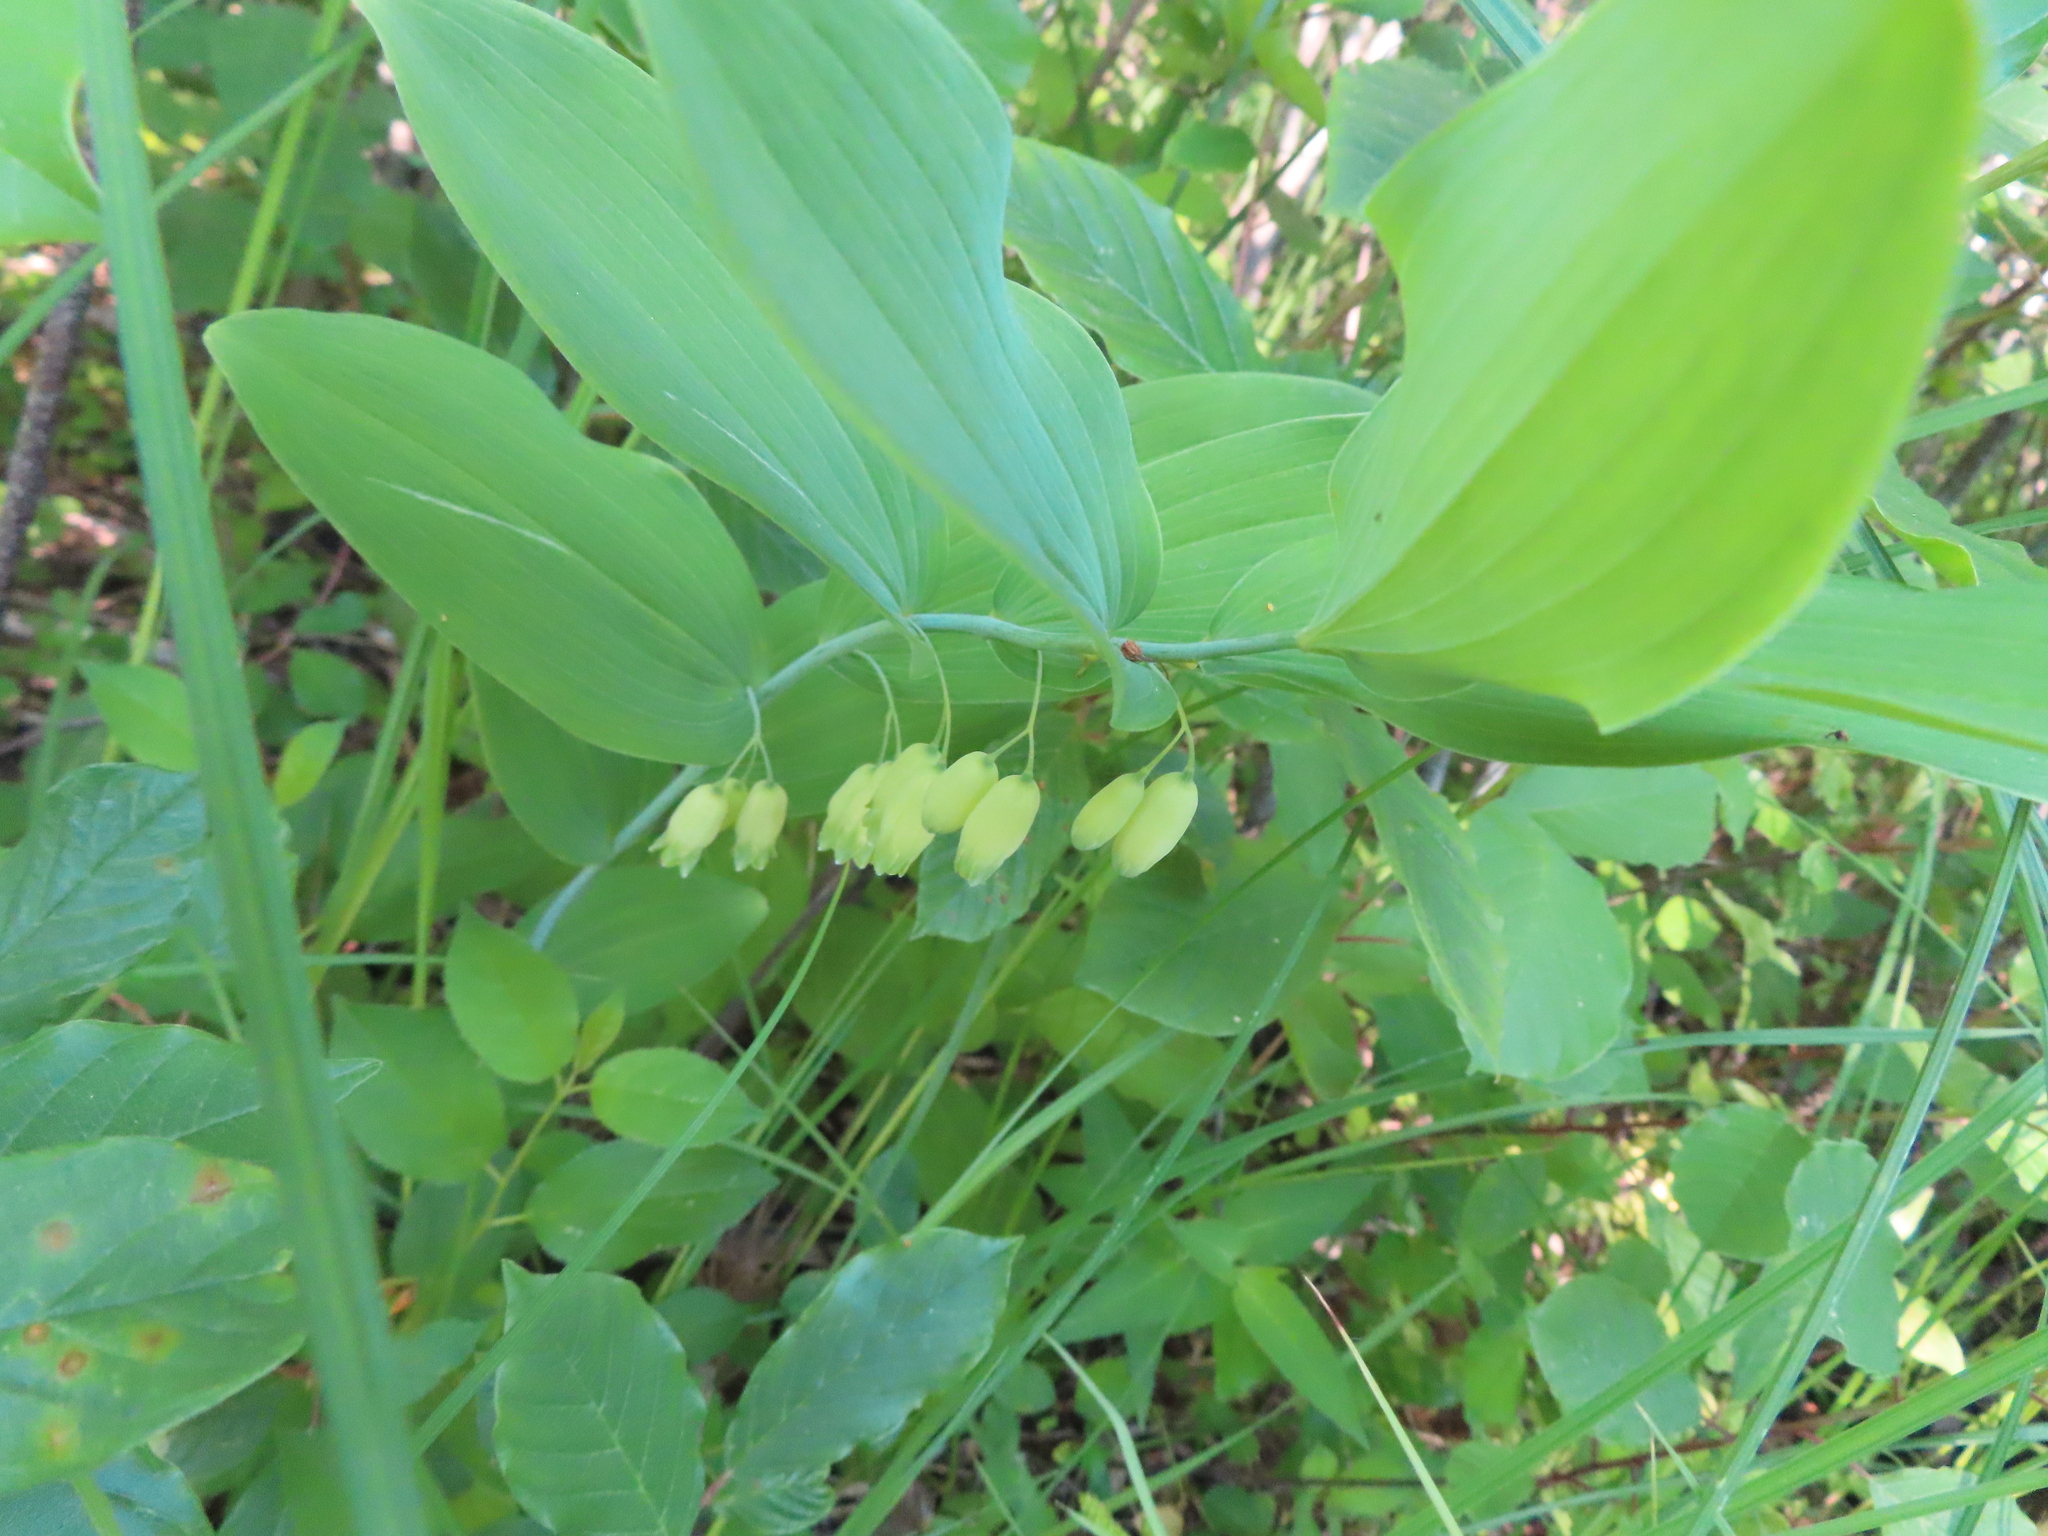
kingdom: Plantae
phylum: Tracheophyta
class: Liliopsida
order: Asparagales
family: Asparagaceae
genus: Polygonatum
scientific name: Polygonatum biflorum
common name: American solomon's-seal
